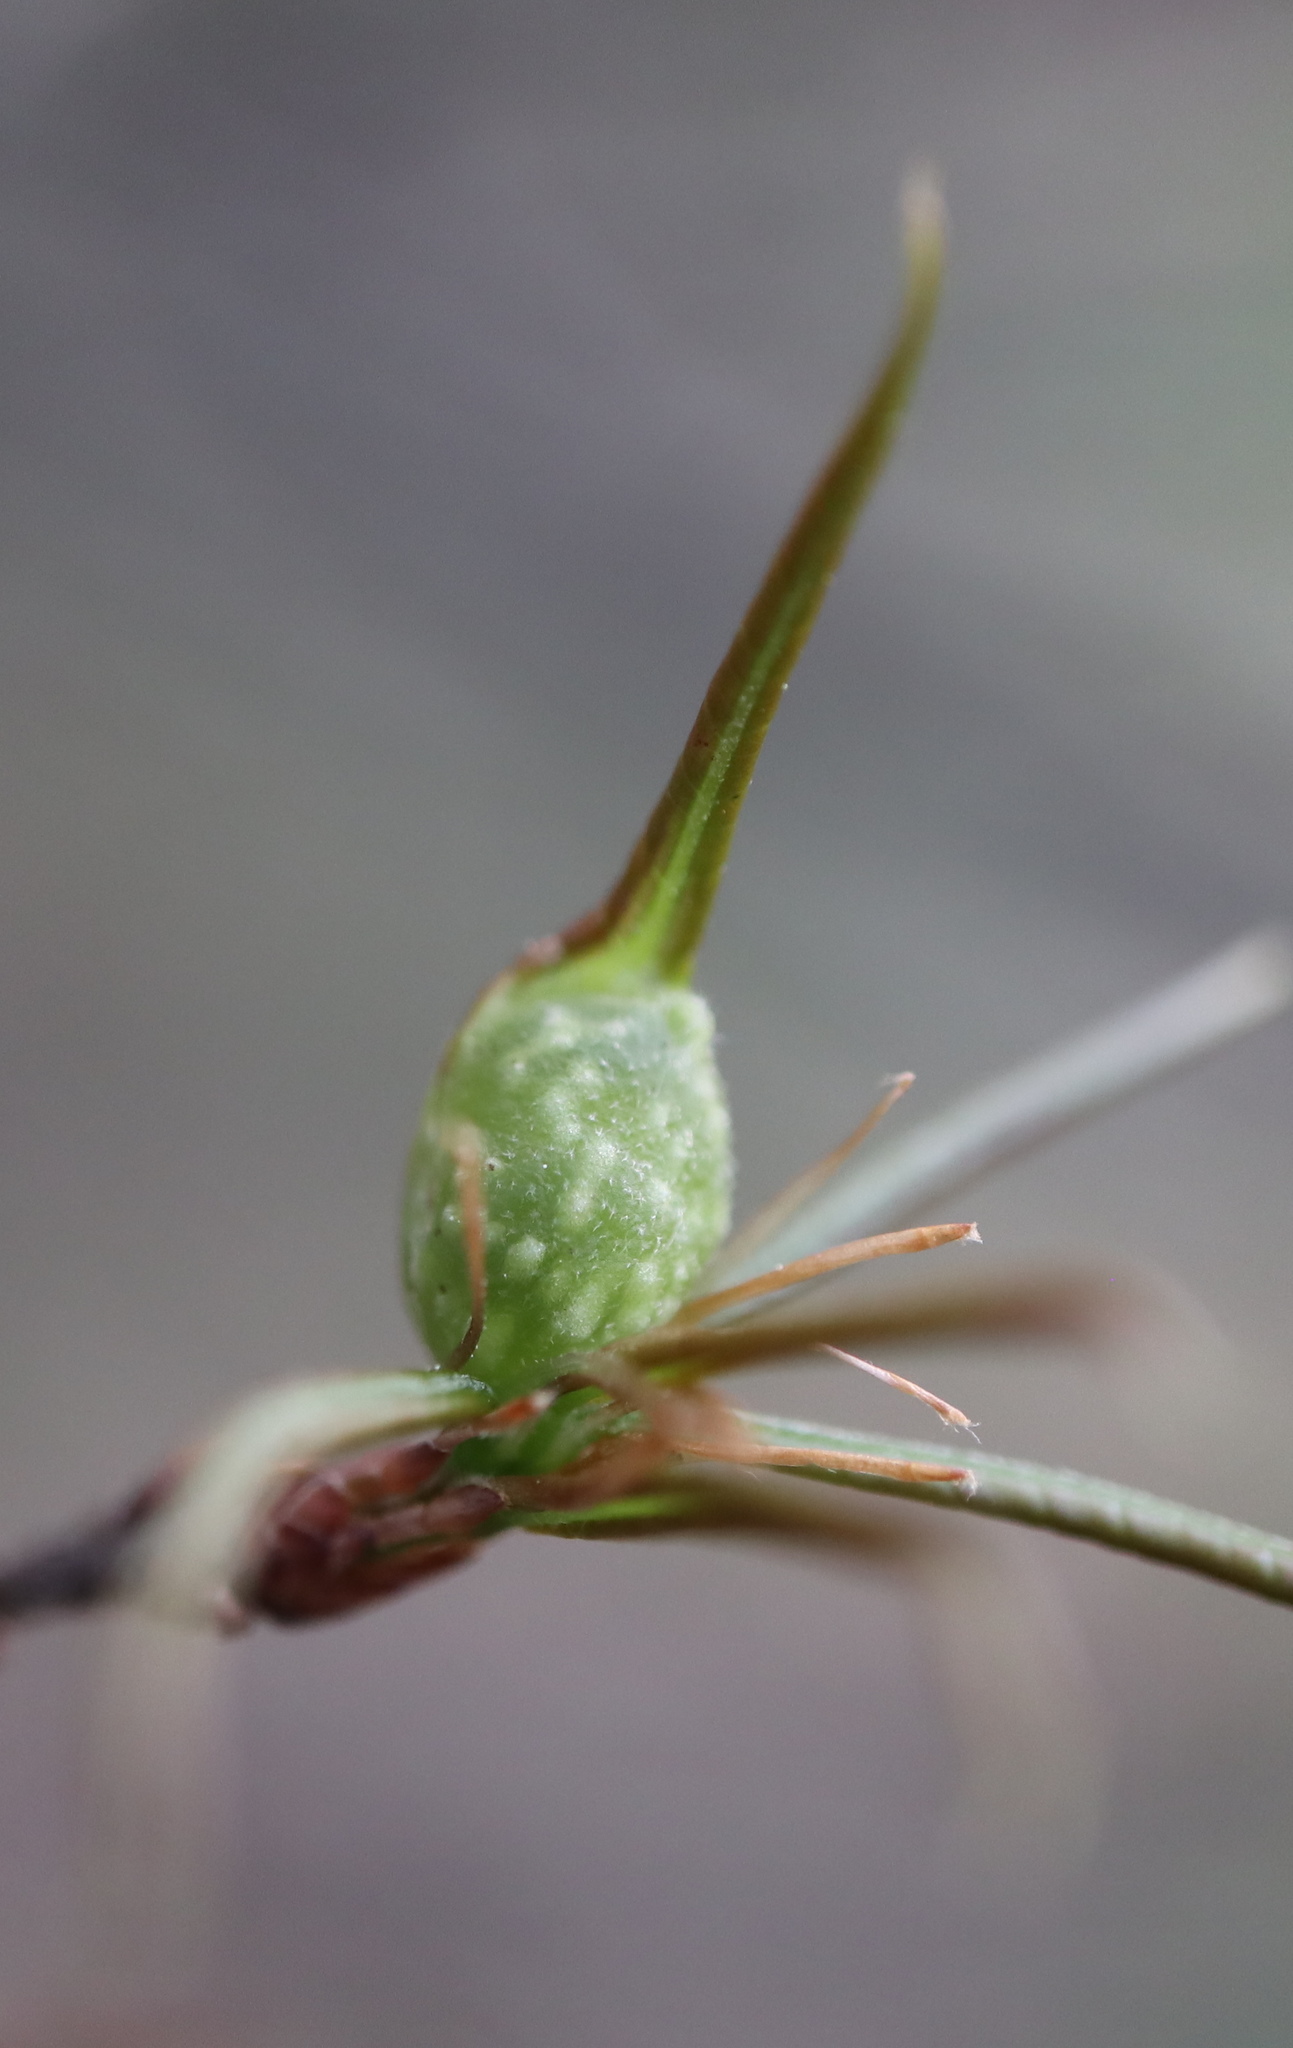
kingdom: Animalia
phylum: Arthropoda
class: Insecta
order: Hymenoptera
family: Cynipidae
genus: Dryocosmus
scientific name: Dryocosmus
